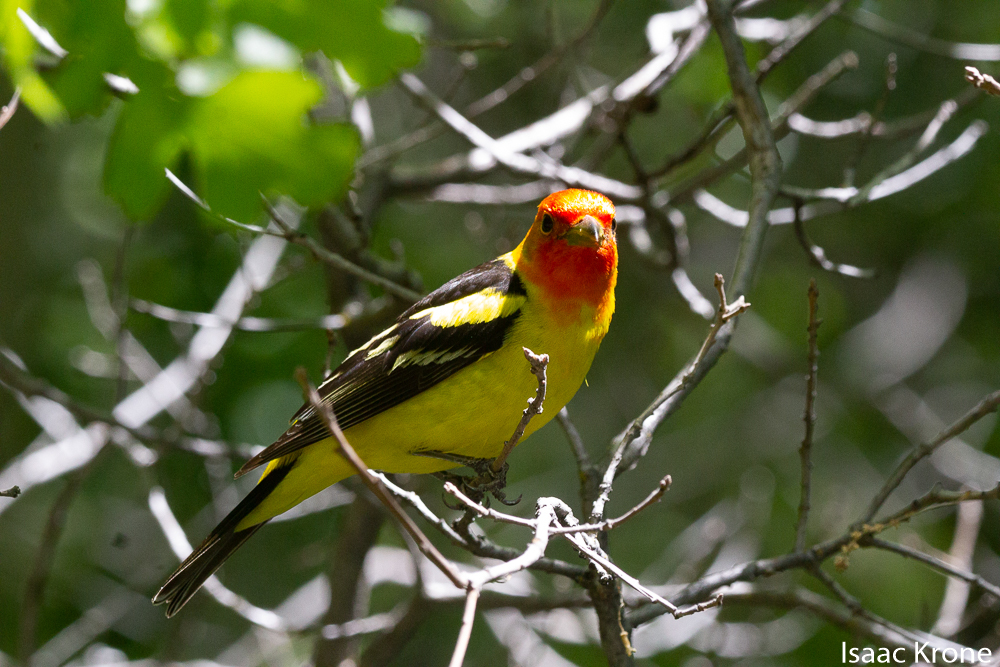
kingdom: Animalia
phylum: Chordata
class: Aves
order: Passeriformes
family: Cardinalidae
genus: Piranga
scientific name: Piranga ludoviciana
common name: Western tanager
